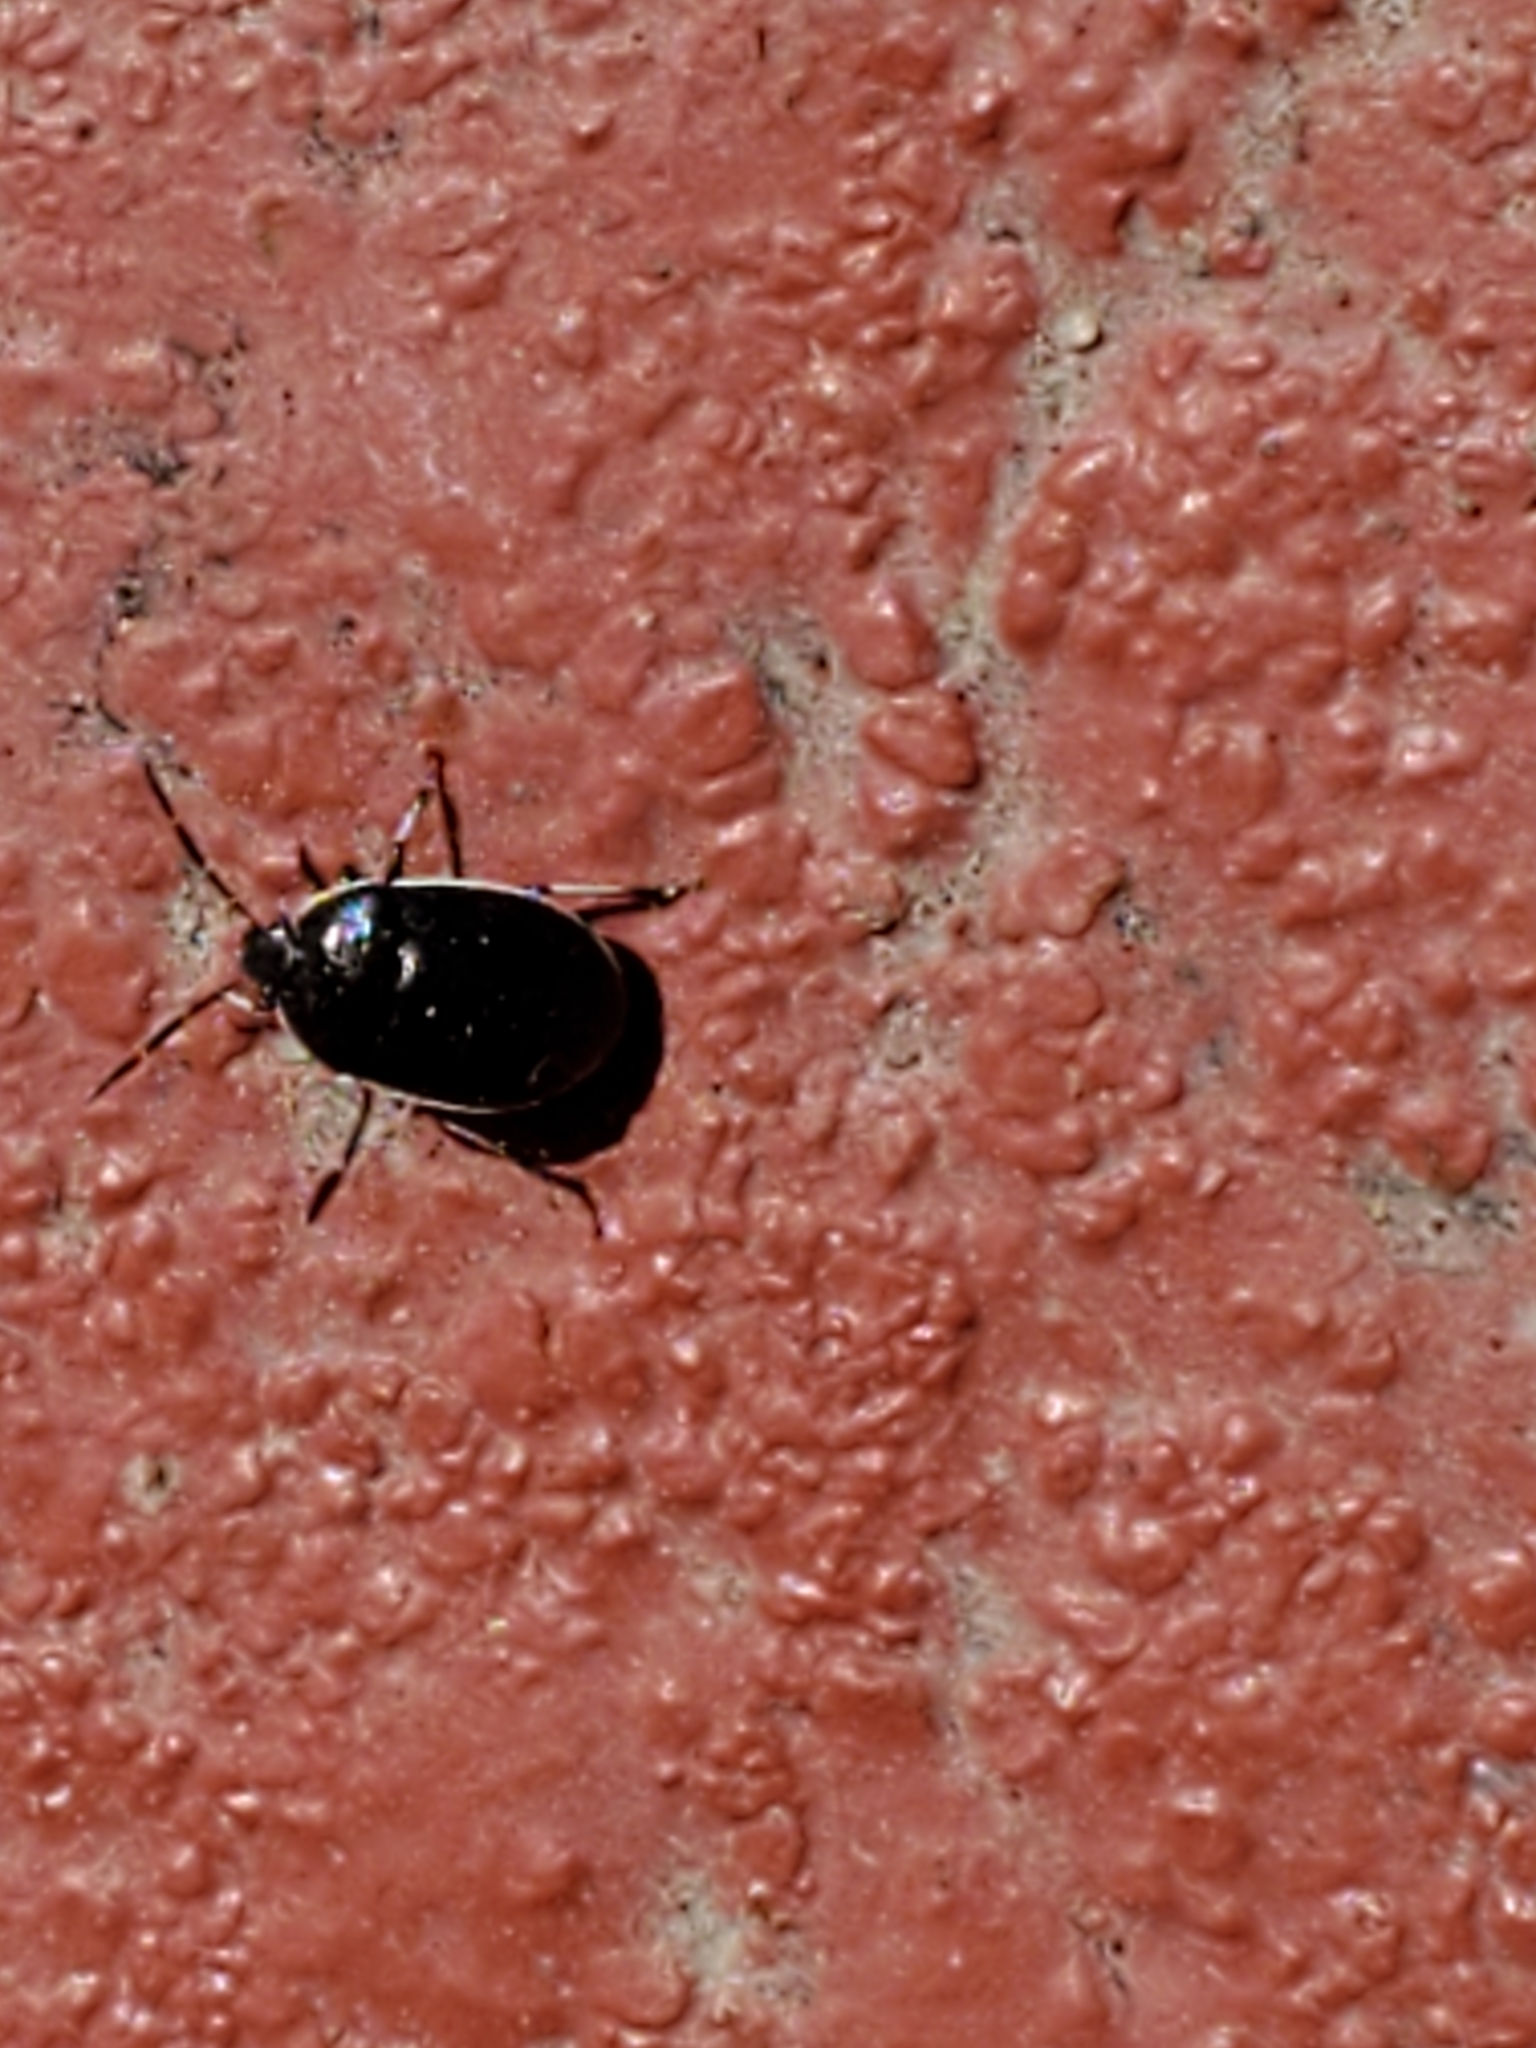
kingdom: Animalia
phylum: Arthropoda
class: Insecta
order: Hemiptera
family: Cydnidae
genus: Sehirus
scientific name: Sehirus cinctus
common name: White-margined burrower bug
